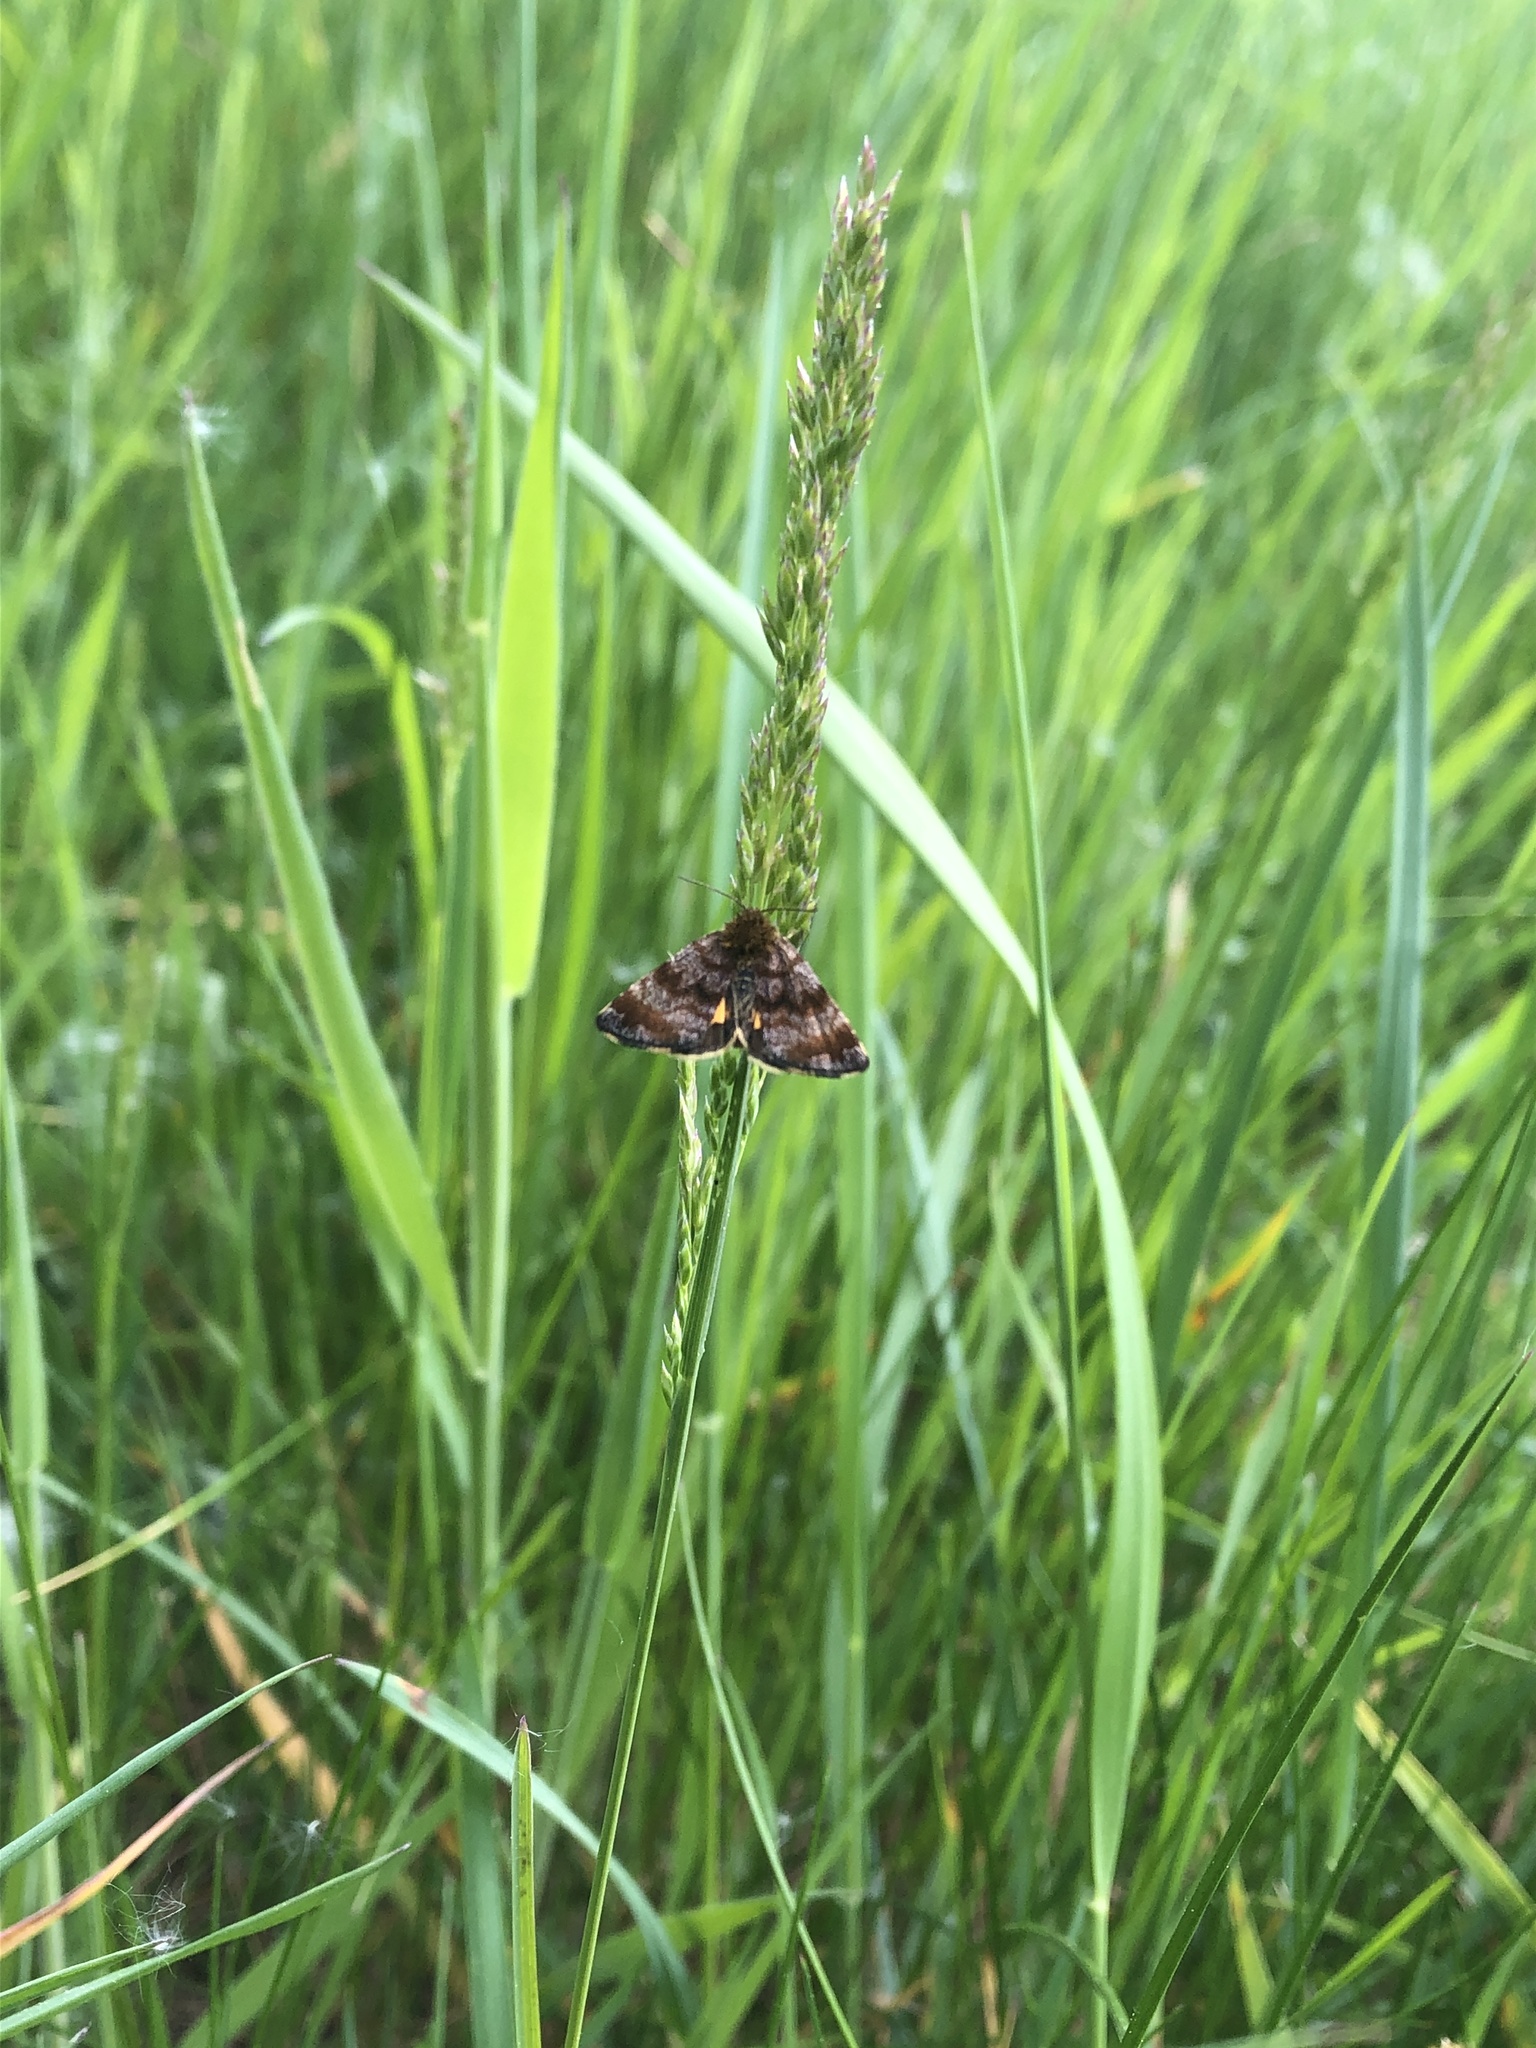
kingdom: Animalia
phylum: Arthropoda
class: Insecta
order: Lepidoptera
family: Noctuidae
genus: Panemeria
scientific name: Panemeria tenebrata
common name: Small yellow underwing
